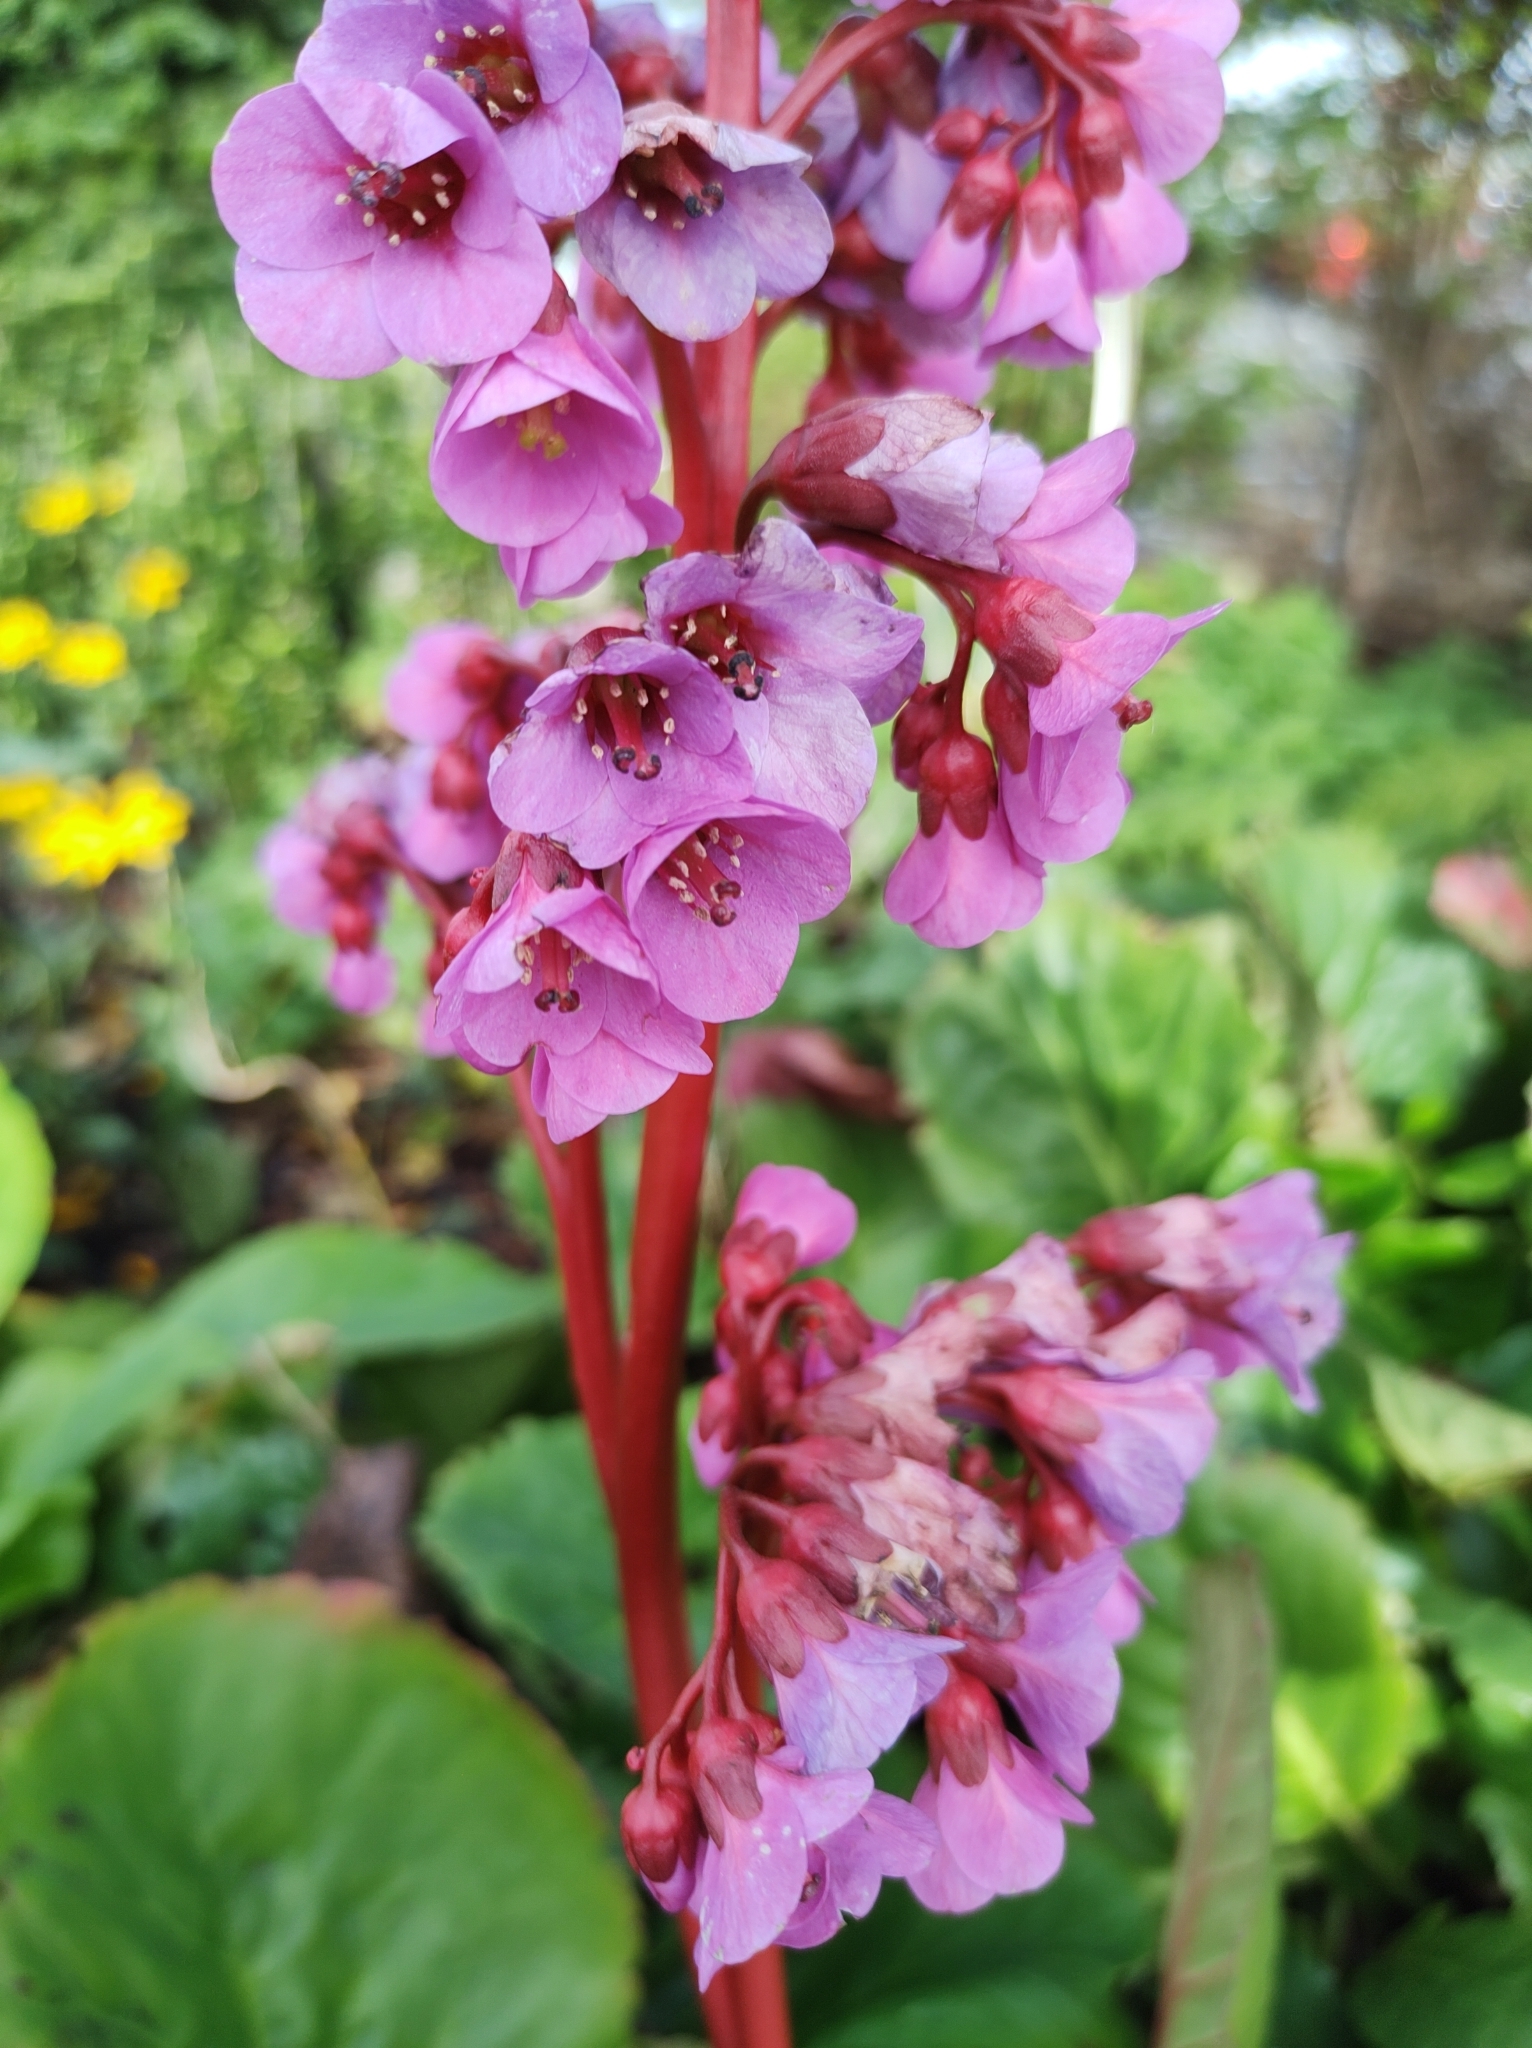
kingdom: Plantae
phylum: Tracheophyta
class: Magnoliopsida
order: Saxifragales
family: Saxifragaceae
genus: Bergenia
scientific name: Bergenia crassifolia
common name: Elephant-ears
